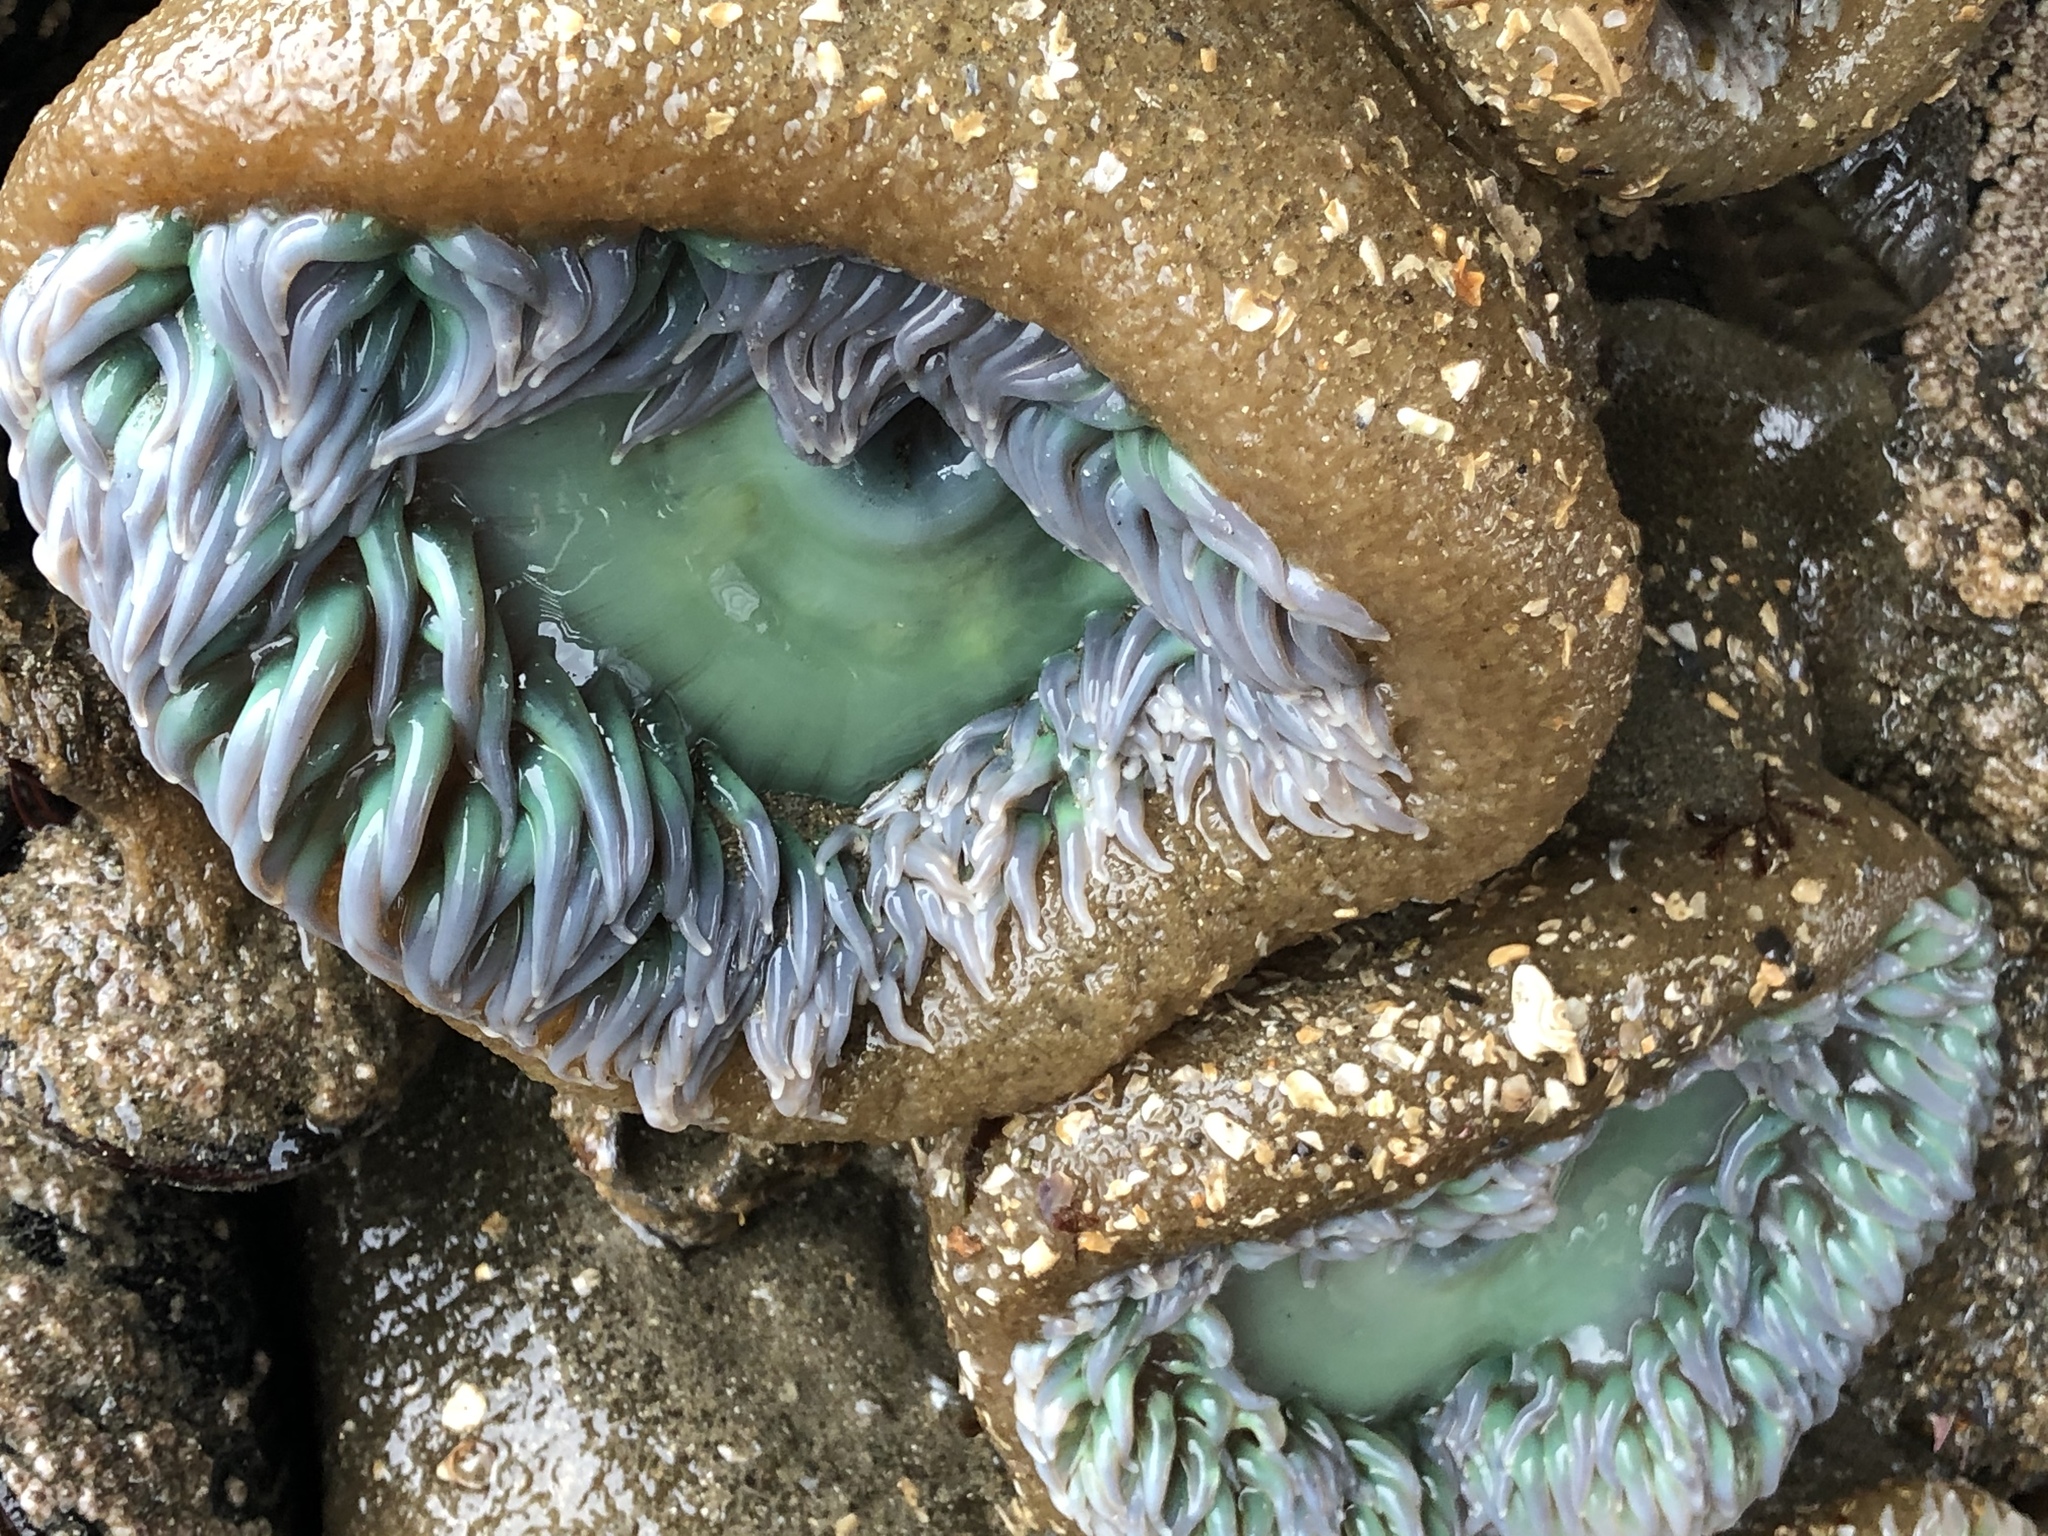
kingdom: Animalia
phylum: Cnidaria
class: Anthozoa
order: Actiniaria
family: Actiniidae
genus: Anthopleura
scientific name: Anthopleura xanthogrammica
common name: Giant green anemone
